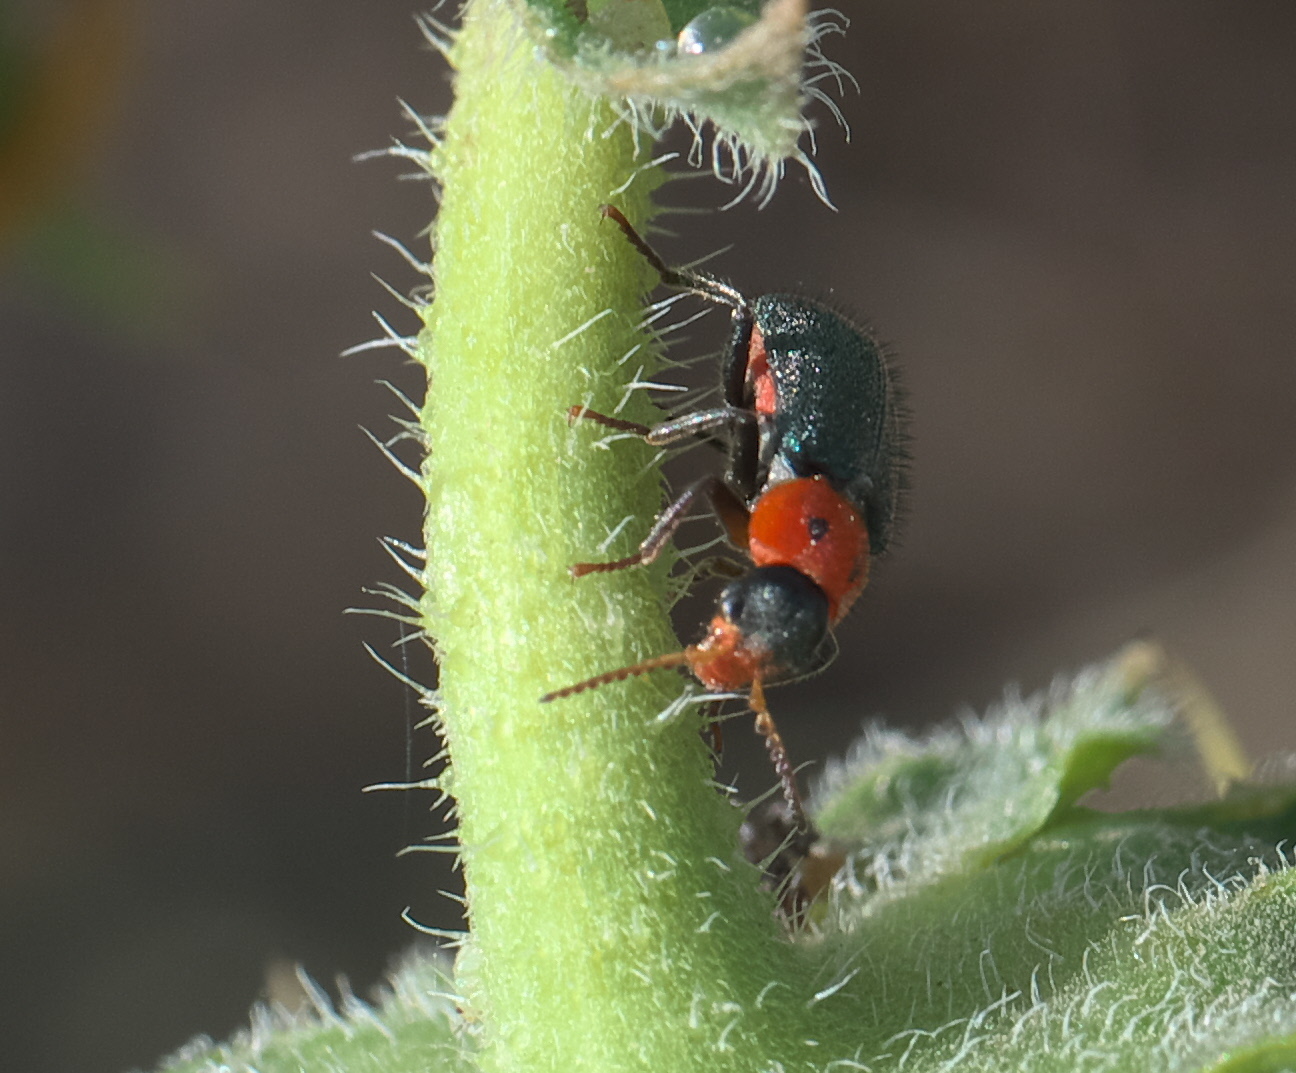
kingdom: Animalia
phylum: Arthropoda
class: Insecta
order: Coleoptera
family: Melyridae
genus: Collops
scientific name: Collops bipunctatus
